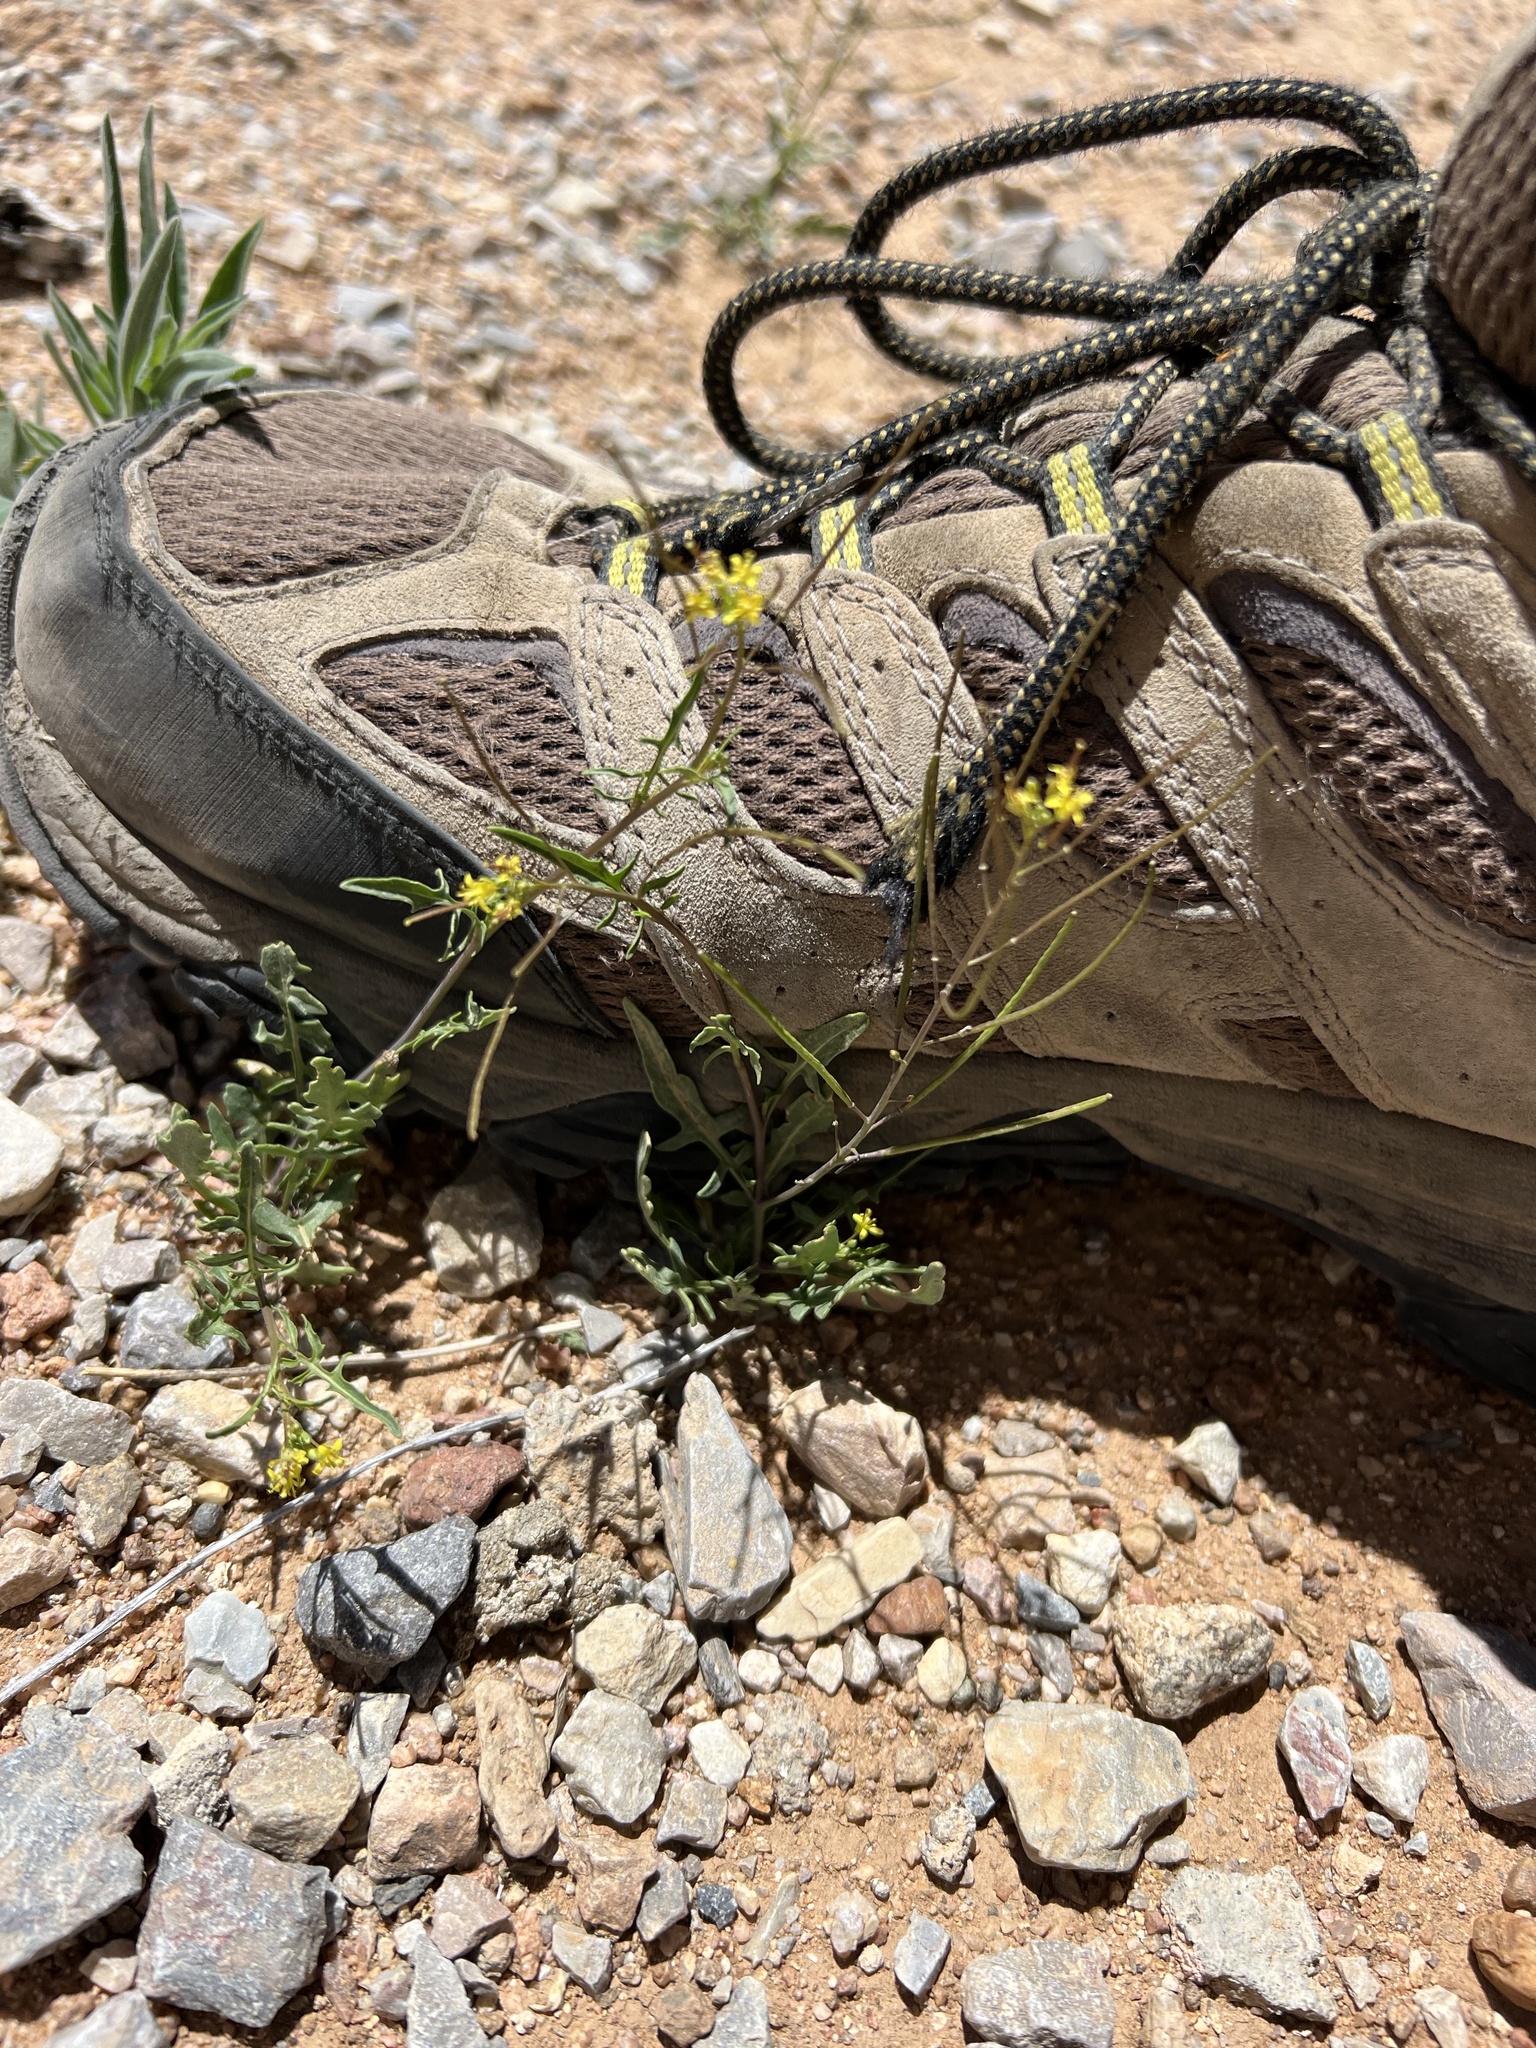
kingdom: Plantae
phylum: Tracheophyta
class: Magnoliopsida
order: Brassicales
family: Brassicaceae
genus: Sisymbrium
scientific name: Sisymbrium irio
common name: London rocket
